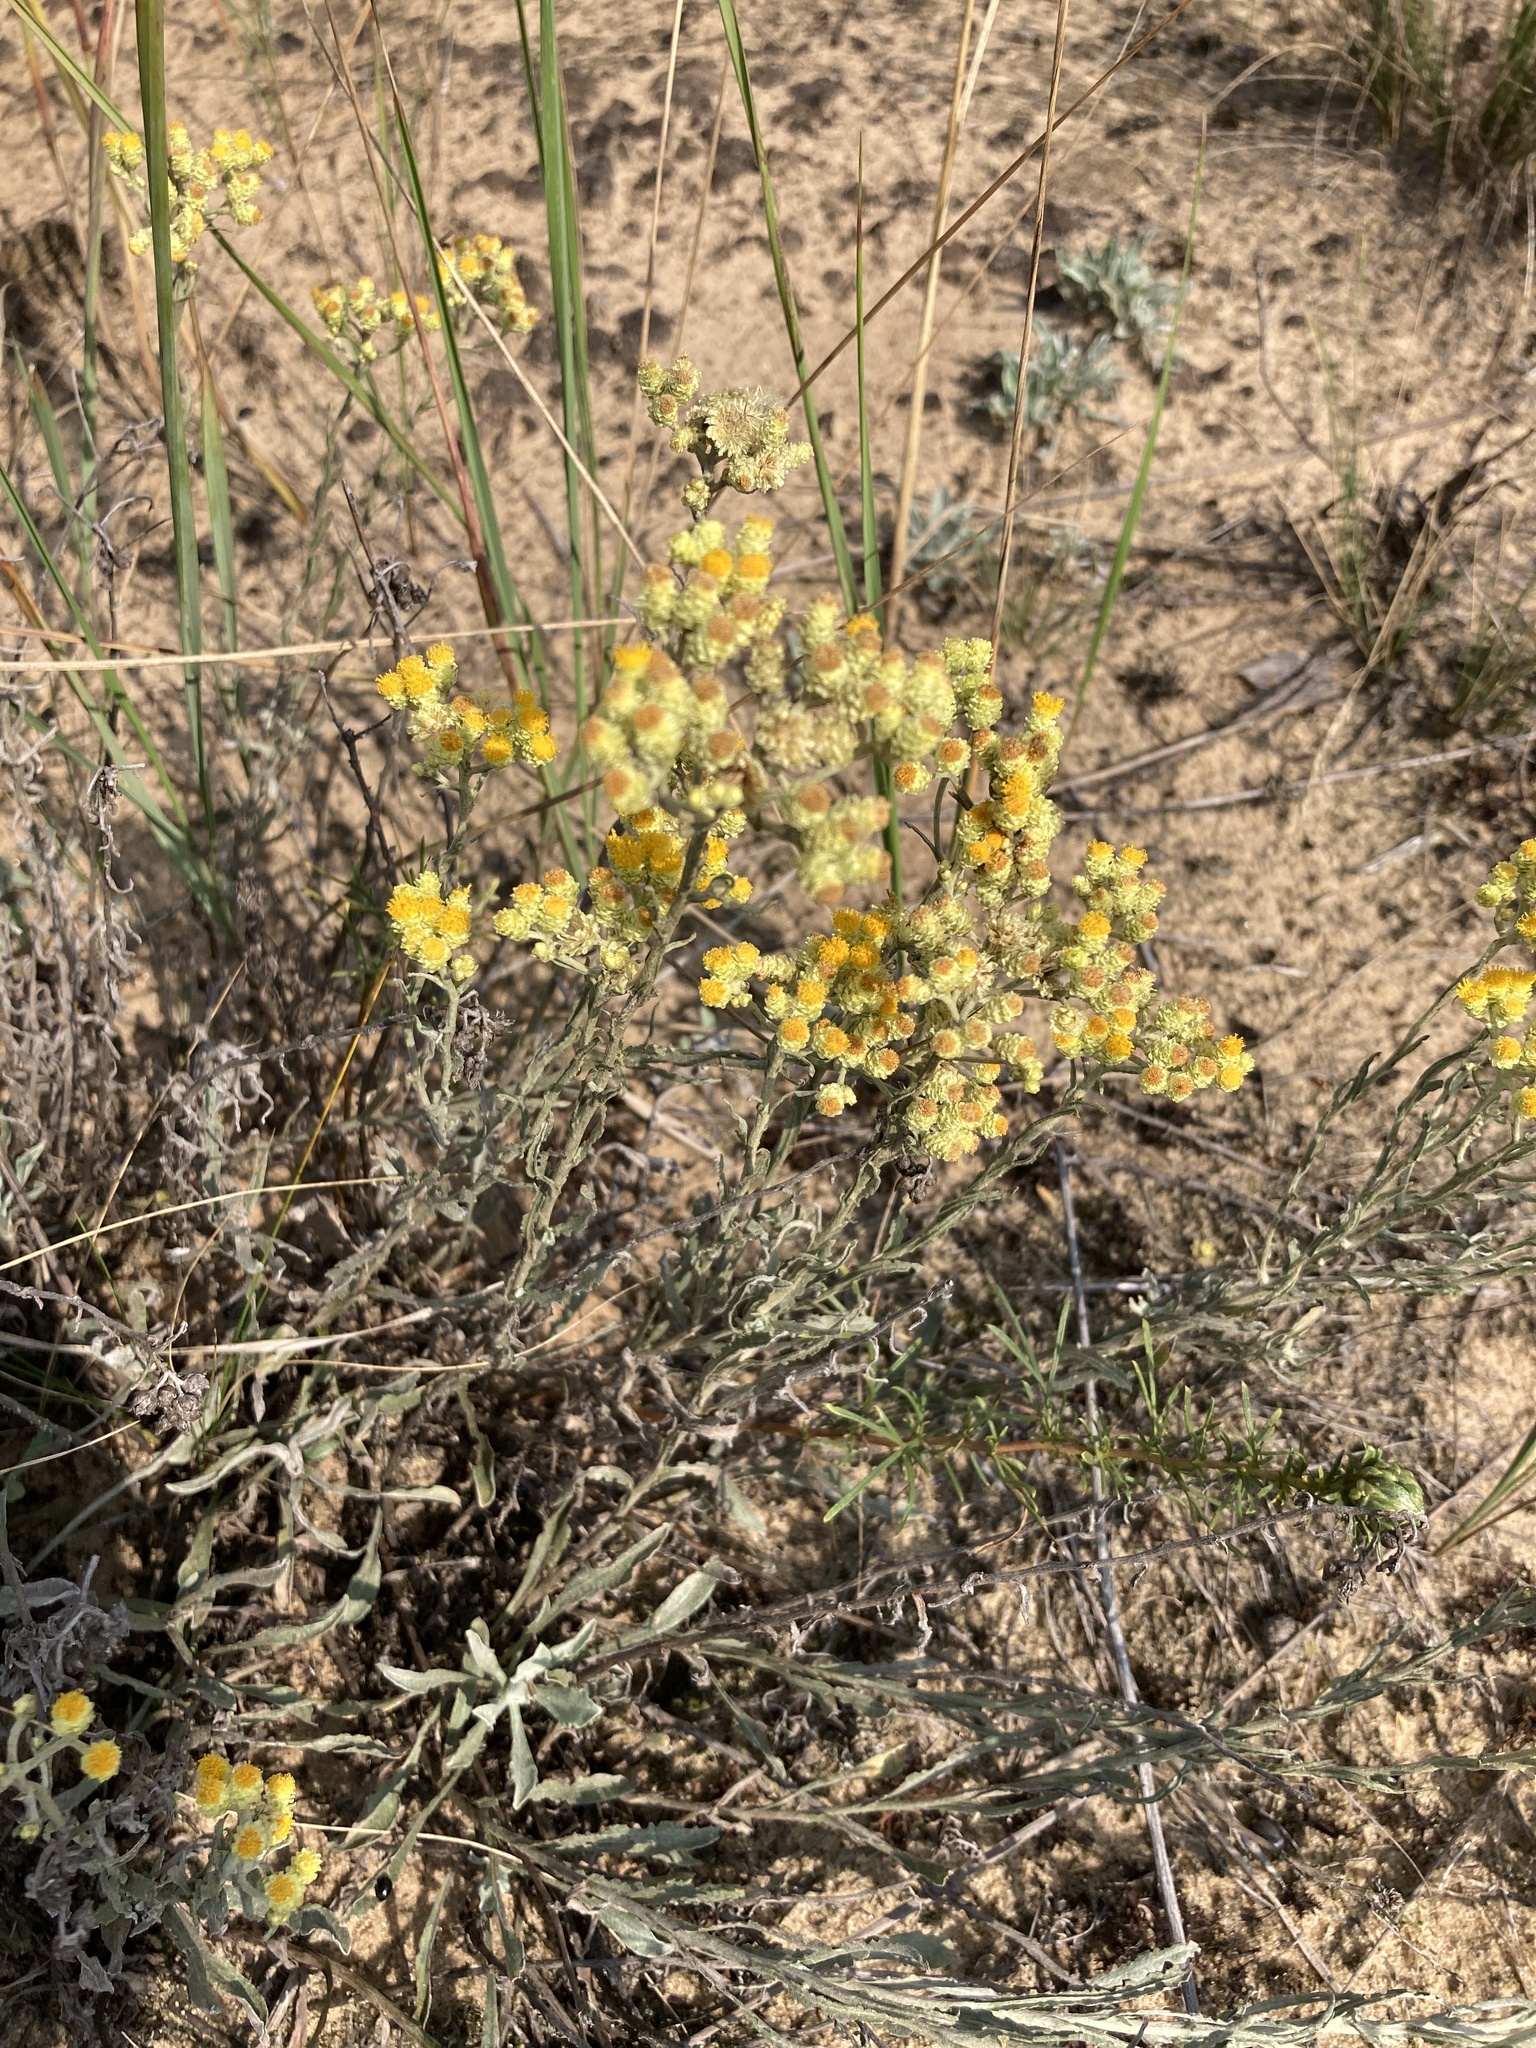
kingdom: Plantae
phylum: Tracheophyta
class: Magnoliopsida
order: Asterales
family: Asteraceae
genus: Helichrysum
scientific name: Helichrysum arenarium
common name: Strawflower
